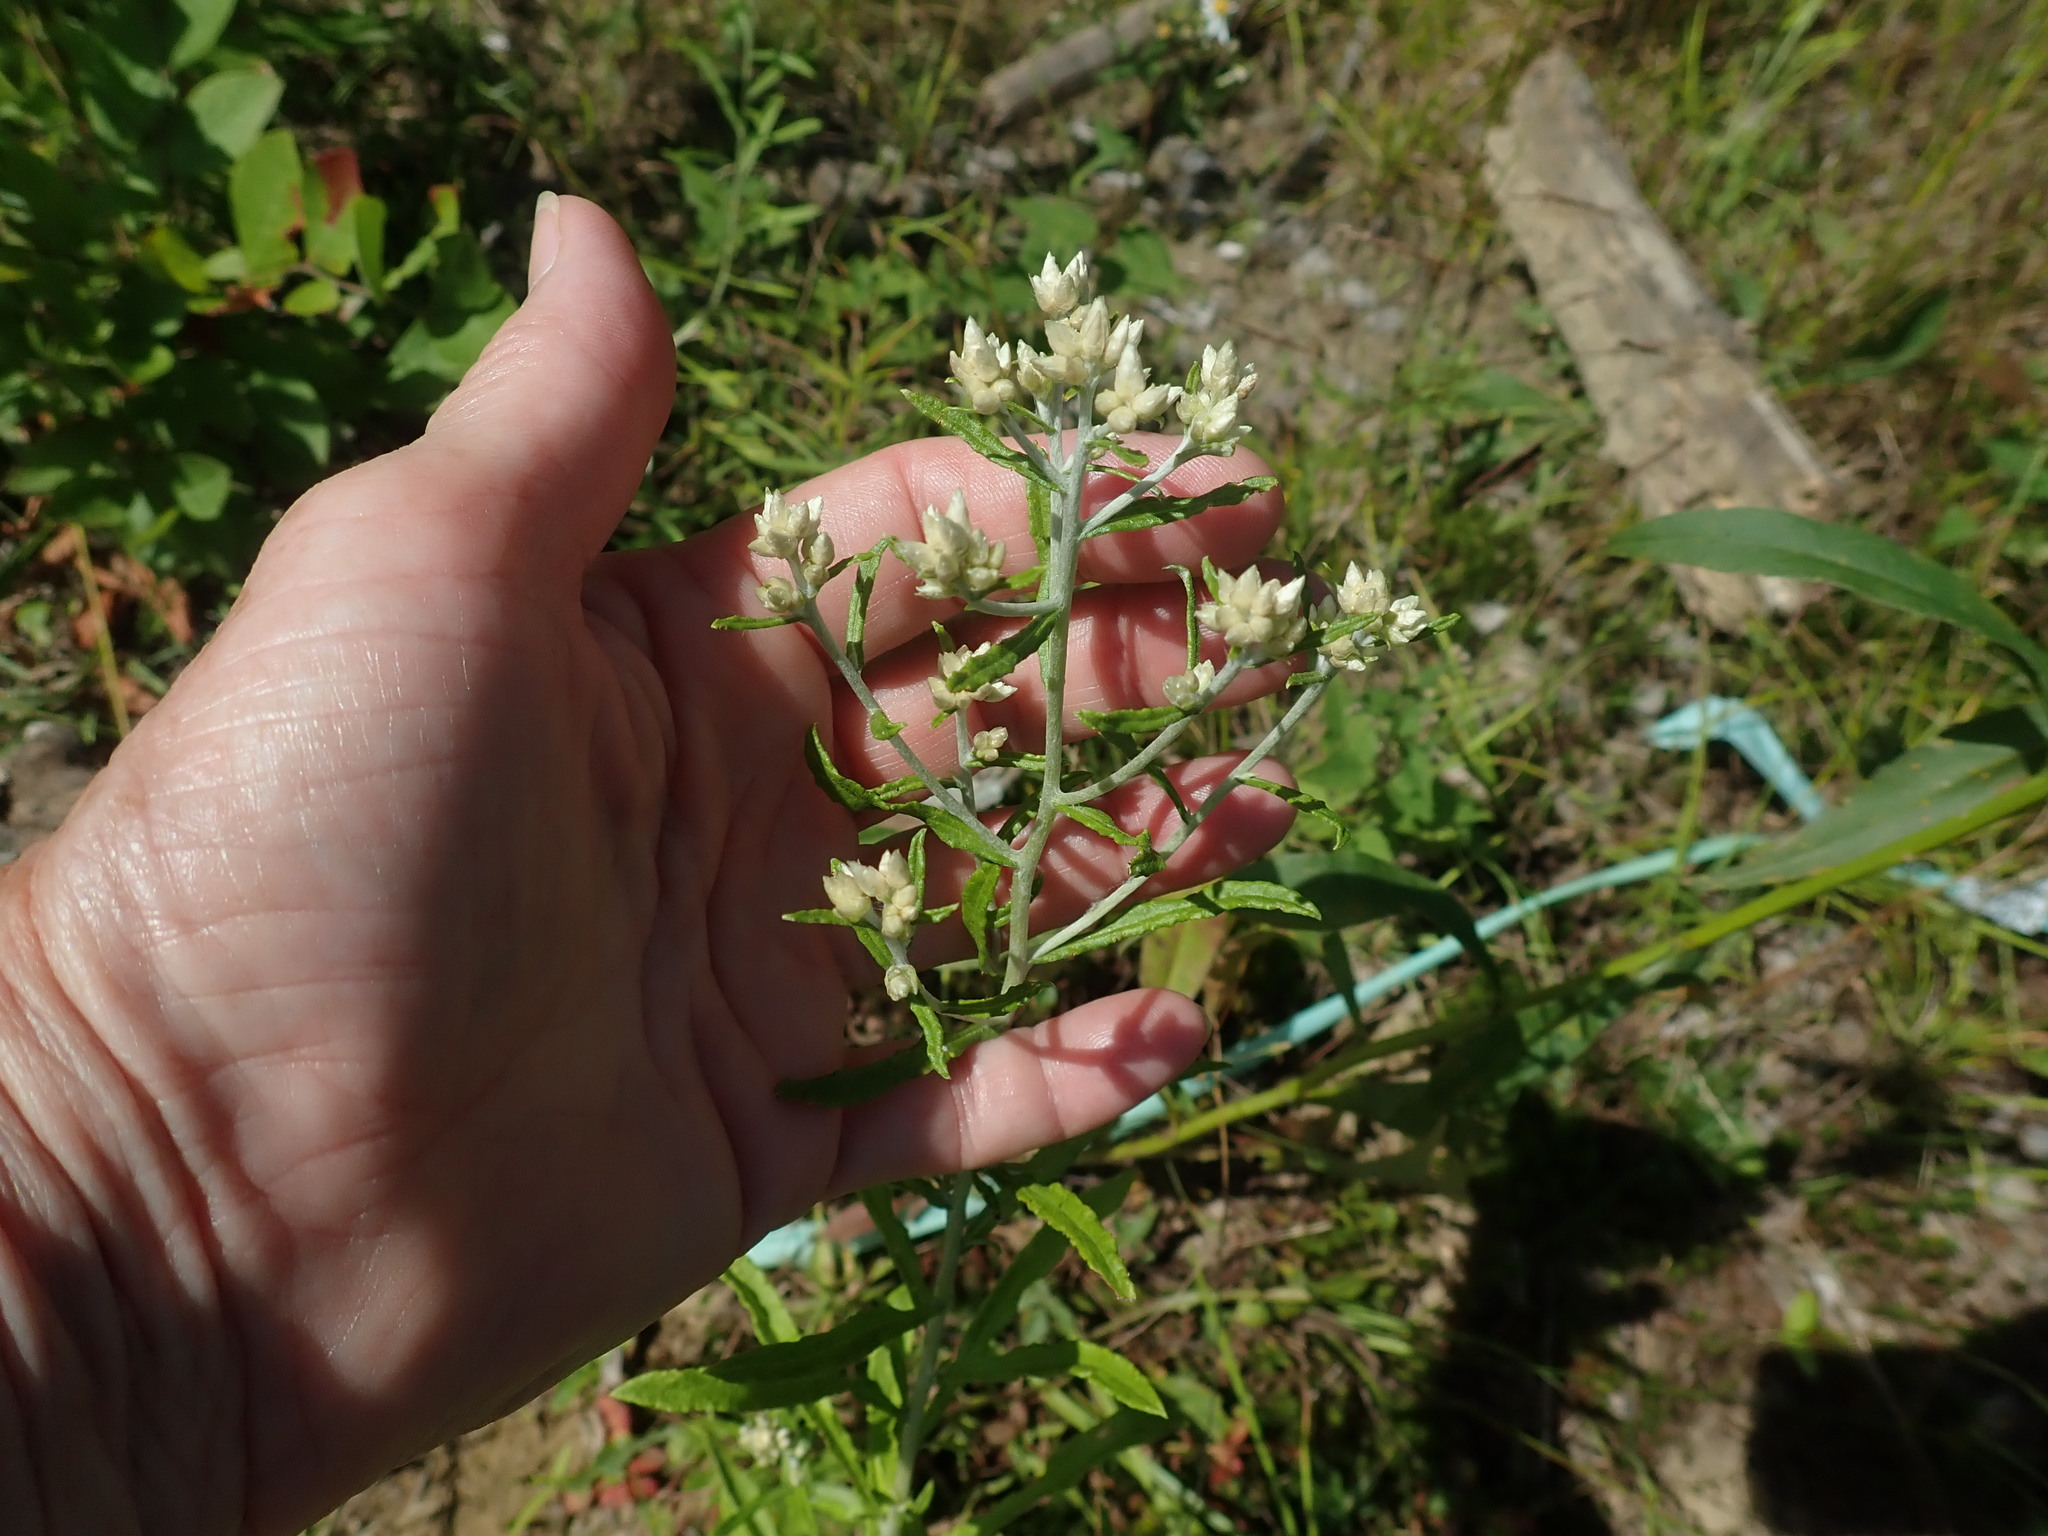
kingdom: Plantae
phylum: Tracheophyta
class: Magnoliopsida
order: Asterales
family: Asteraceae
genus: Pseudognaphalium
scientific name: Pseudognaphalium obtusifolium
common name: Eastern rabbit-tobacco
